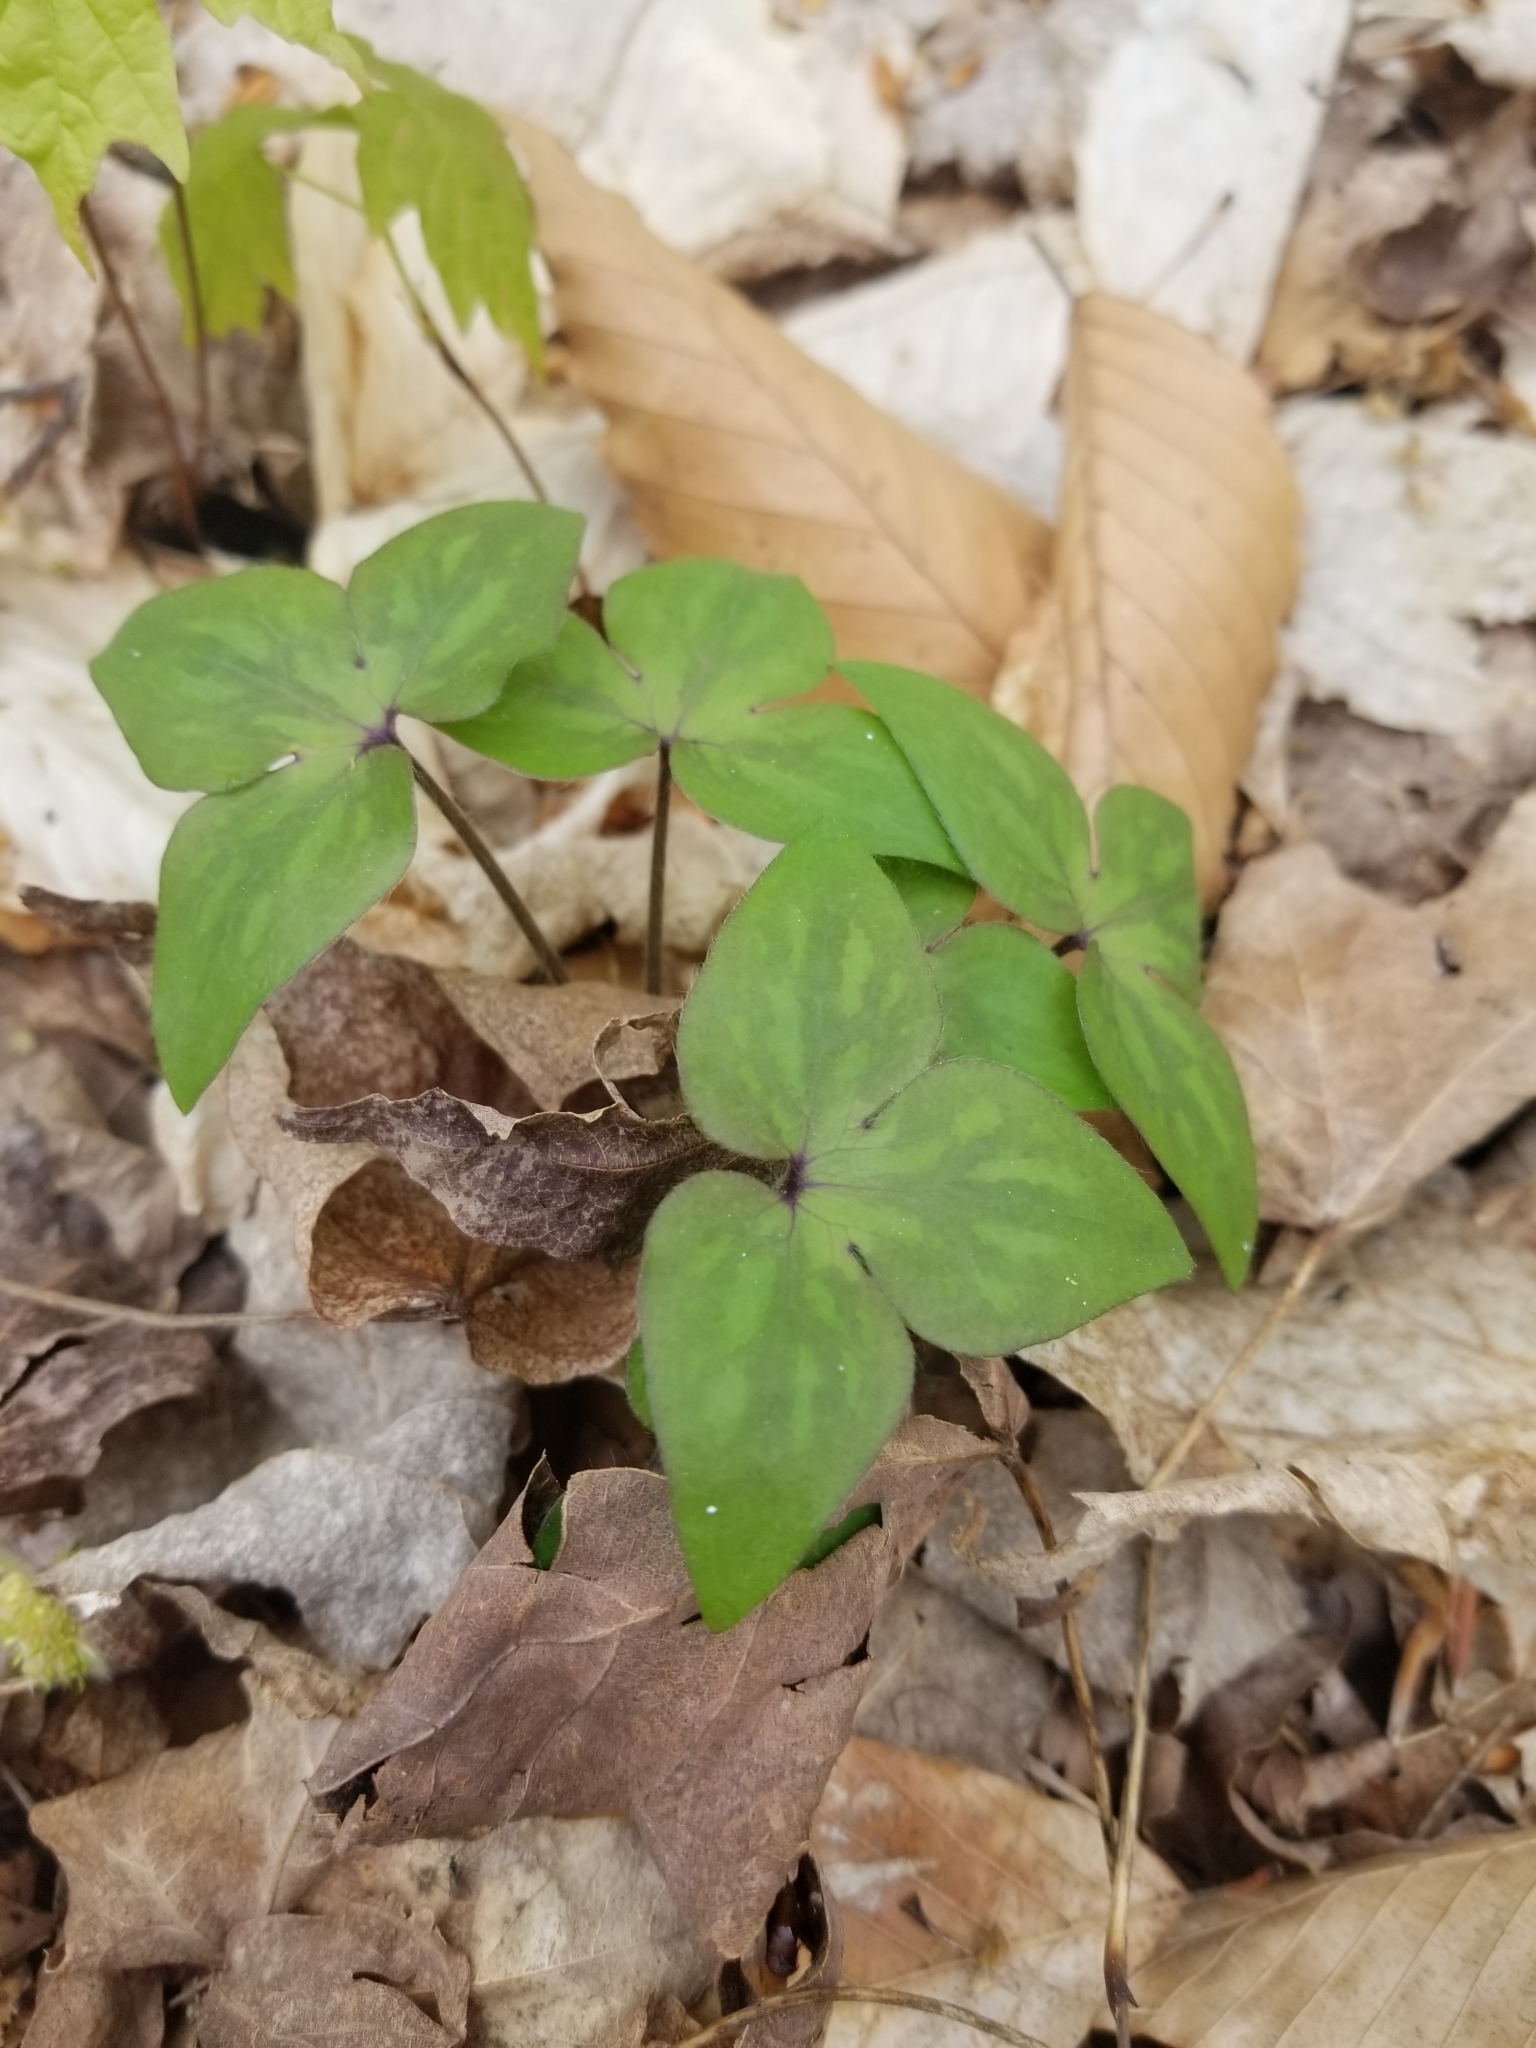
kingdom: Plantae
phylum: Tracheophyta
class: Magnoliopsida
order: Ranunculales
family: Ranunculaceae
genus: Hepatica
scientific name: Hepatica acutiloba
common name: Sharp-lobed hepatica
